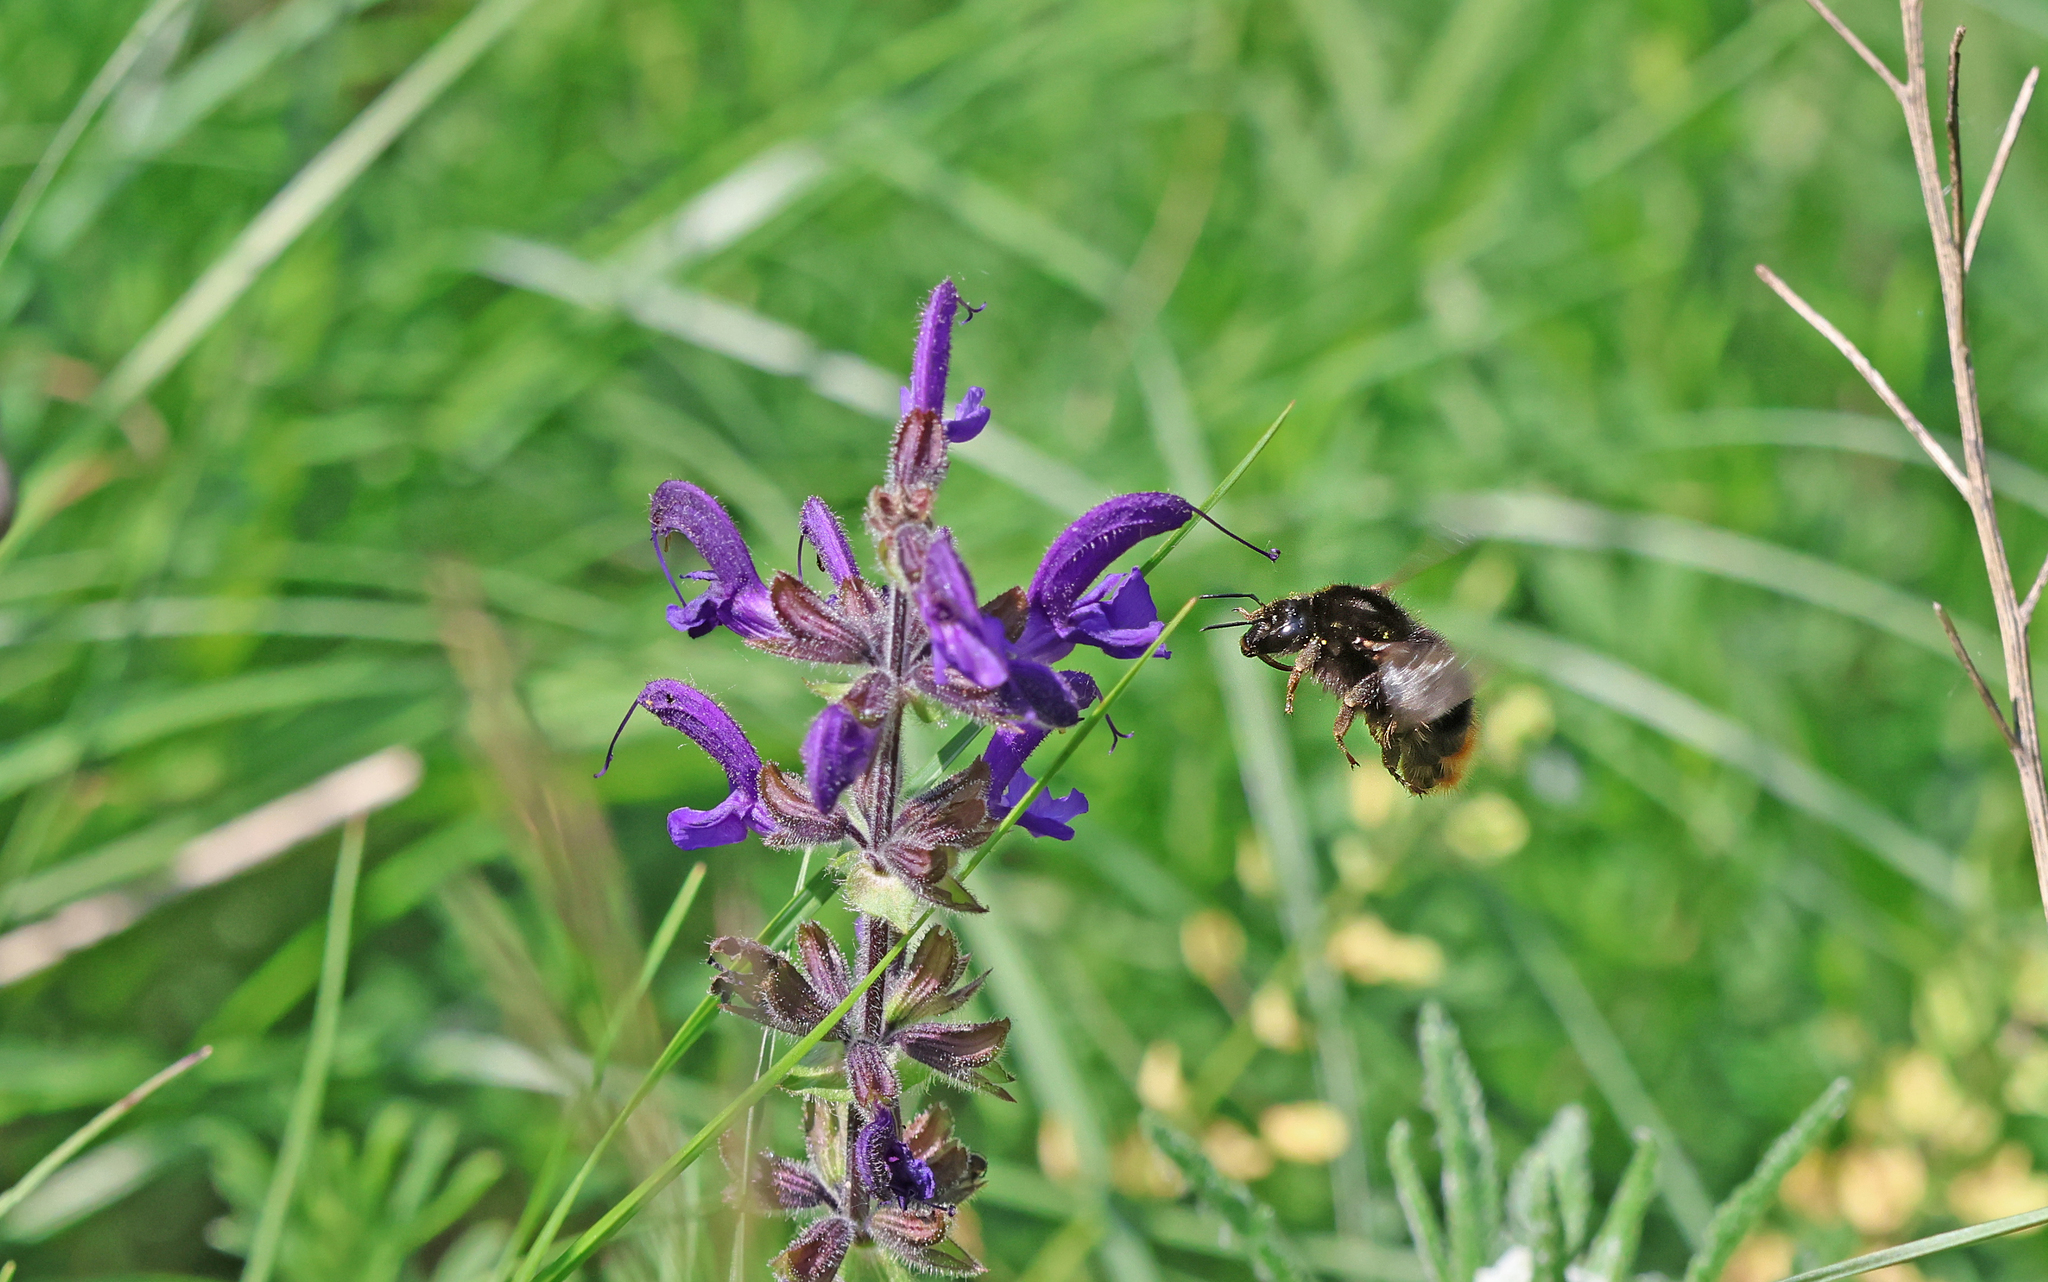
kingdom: Animalia
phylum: Arthropoda
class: Insecta
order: Hymenoptera
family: Apidae
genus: Bombus
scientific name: Bombus ruderarius
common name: Red-shanked carder-bee
